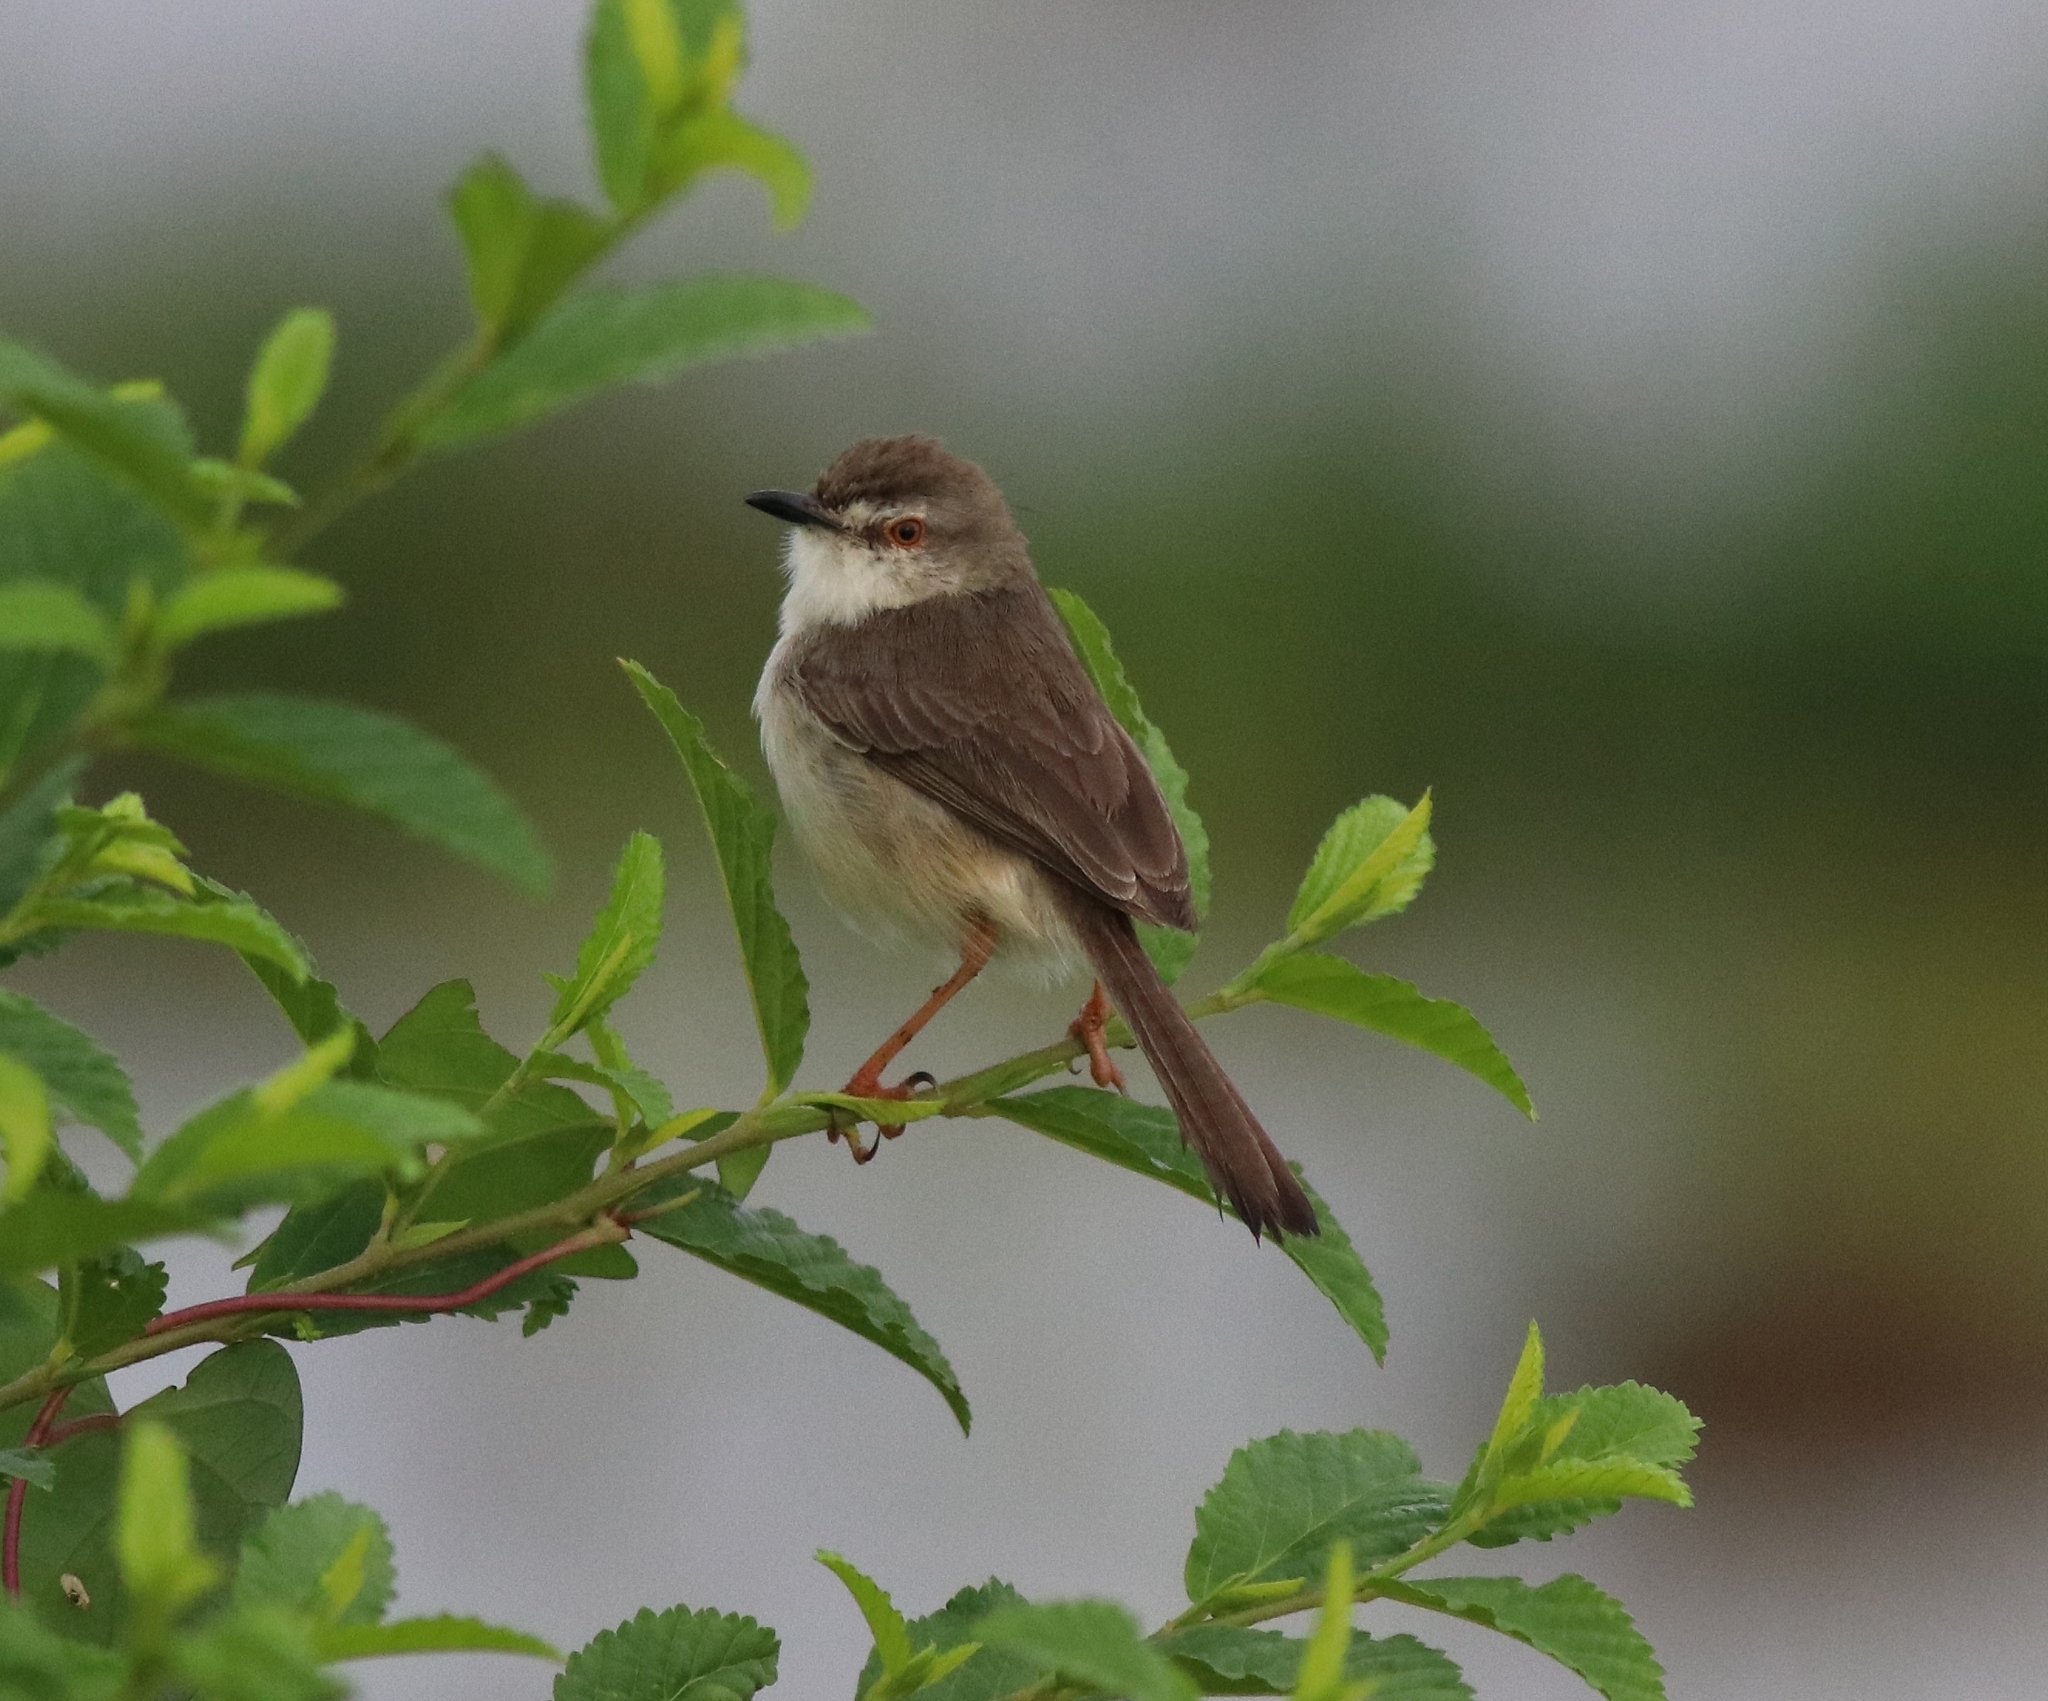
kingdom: Animalia
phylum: Chordata
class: Aves
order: Passeriformes
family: Cisticolidae
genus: Prinia
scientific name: Prinia inornata
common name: Plain prinia
